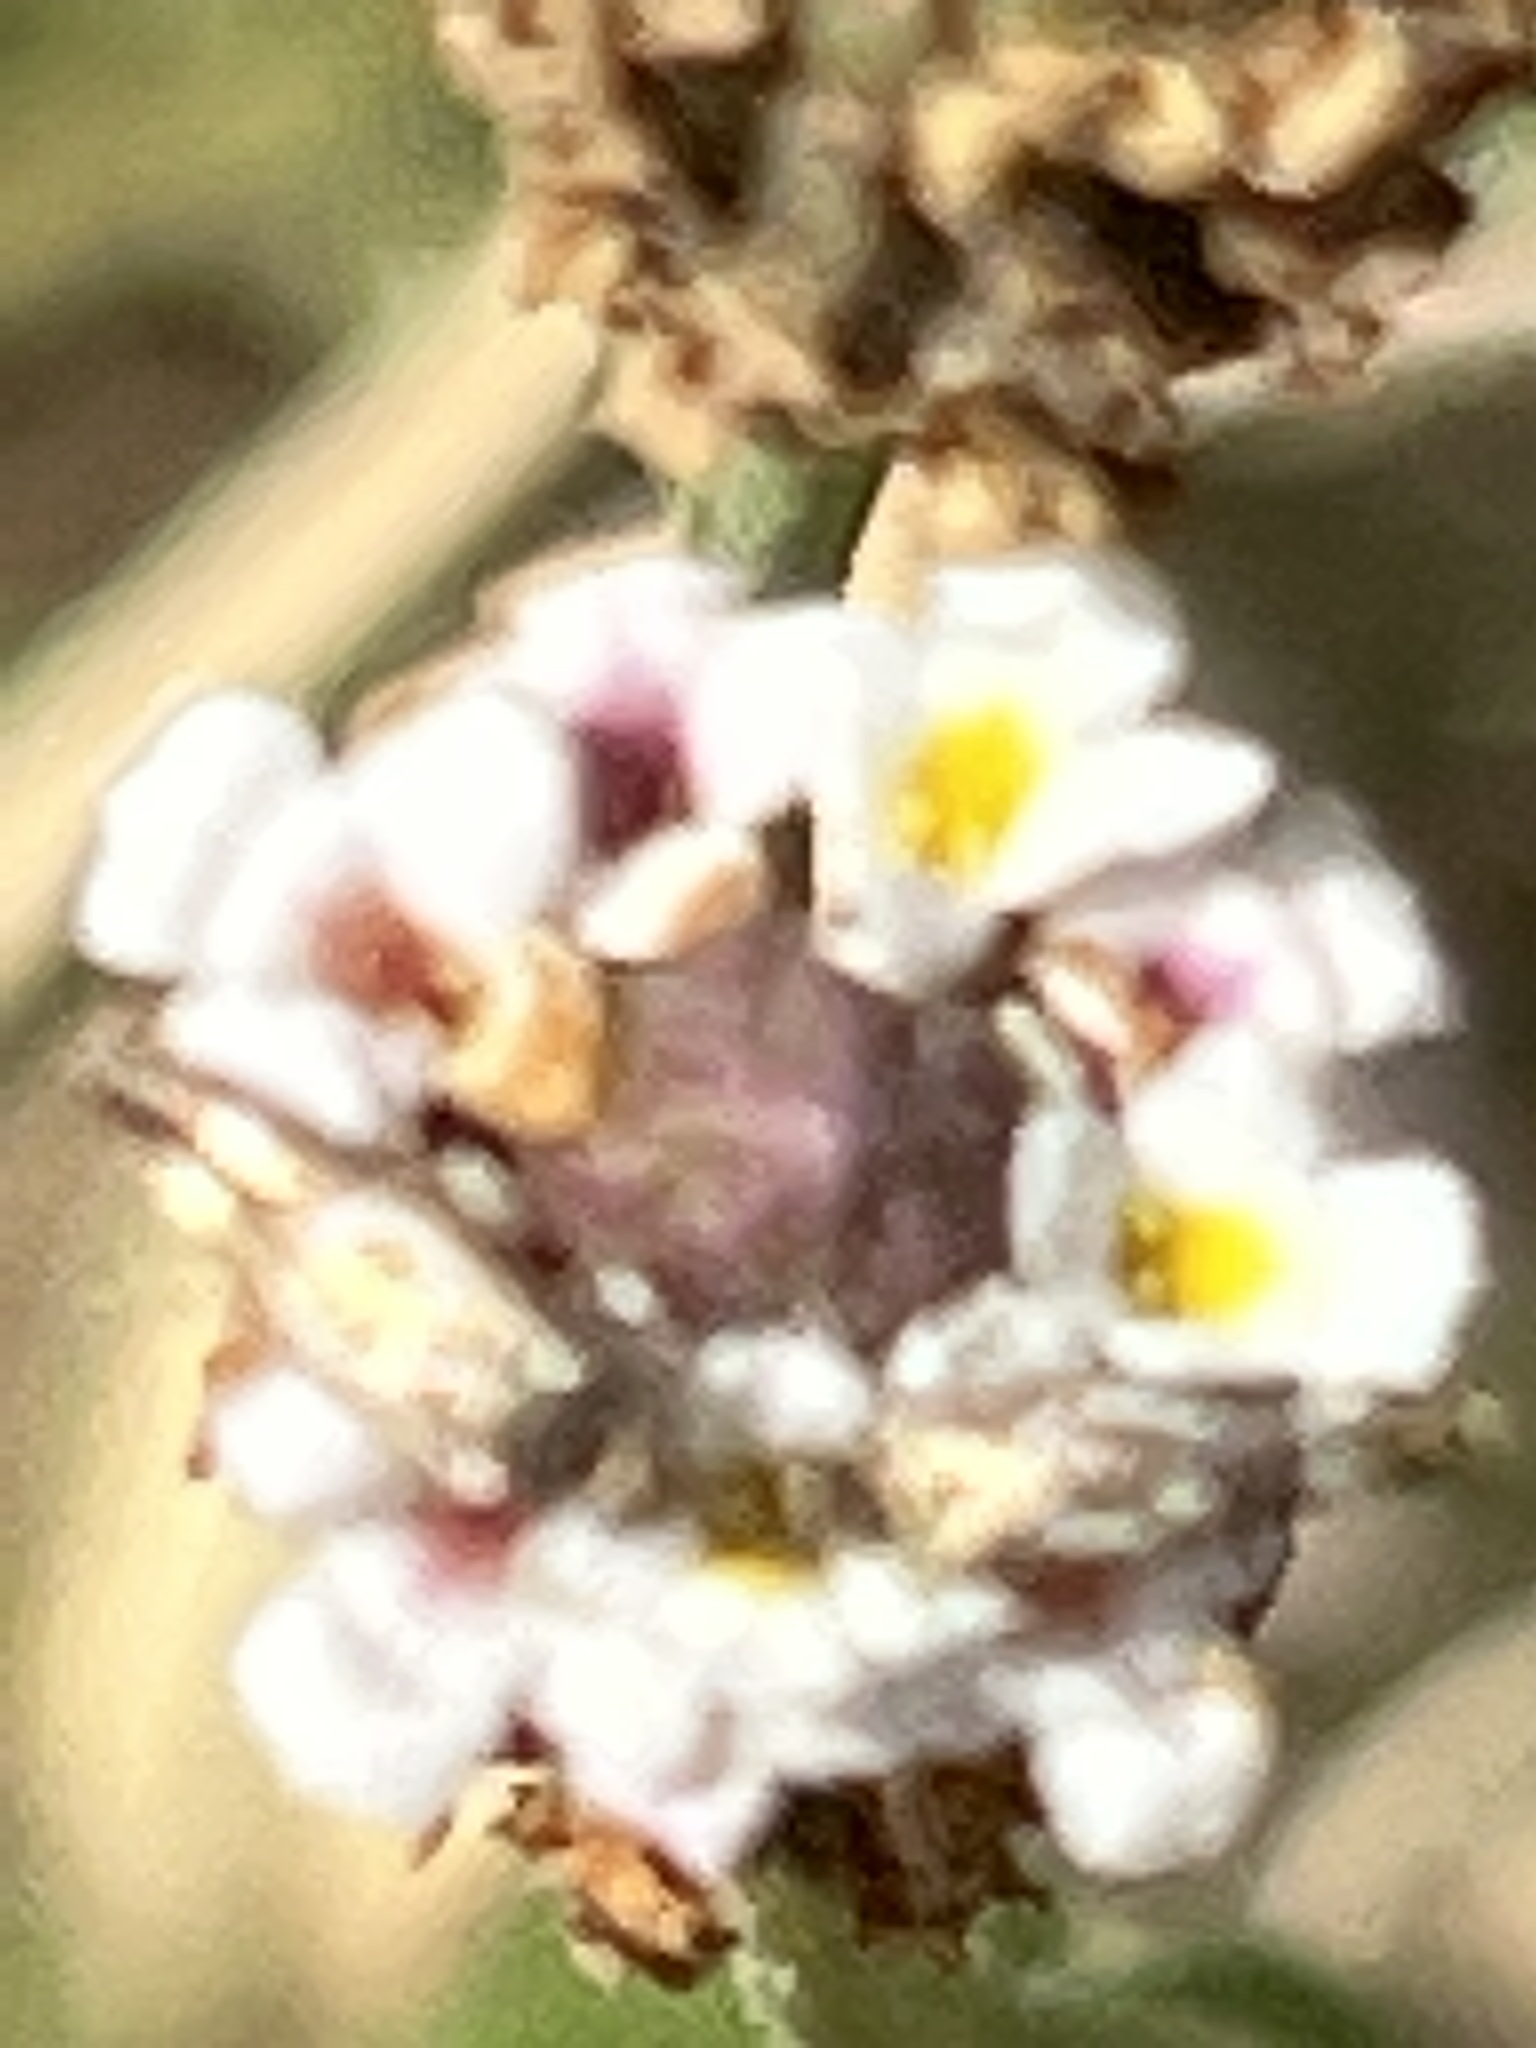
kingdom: Plantae
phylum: Tracheophyta
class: Magnoliopsida
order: Lamiales
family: Verbenaceae
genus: Phyla
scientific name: Phyla nodiflora
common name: Frogfruit
